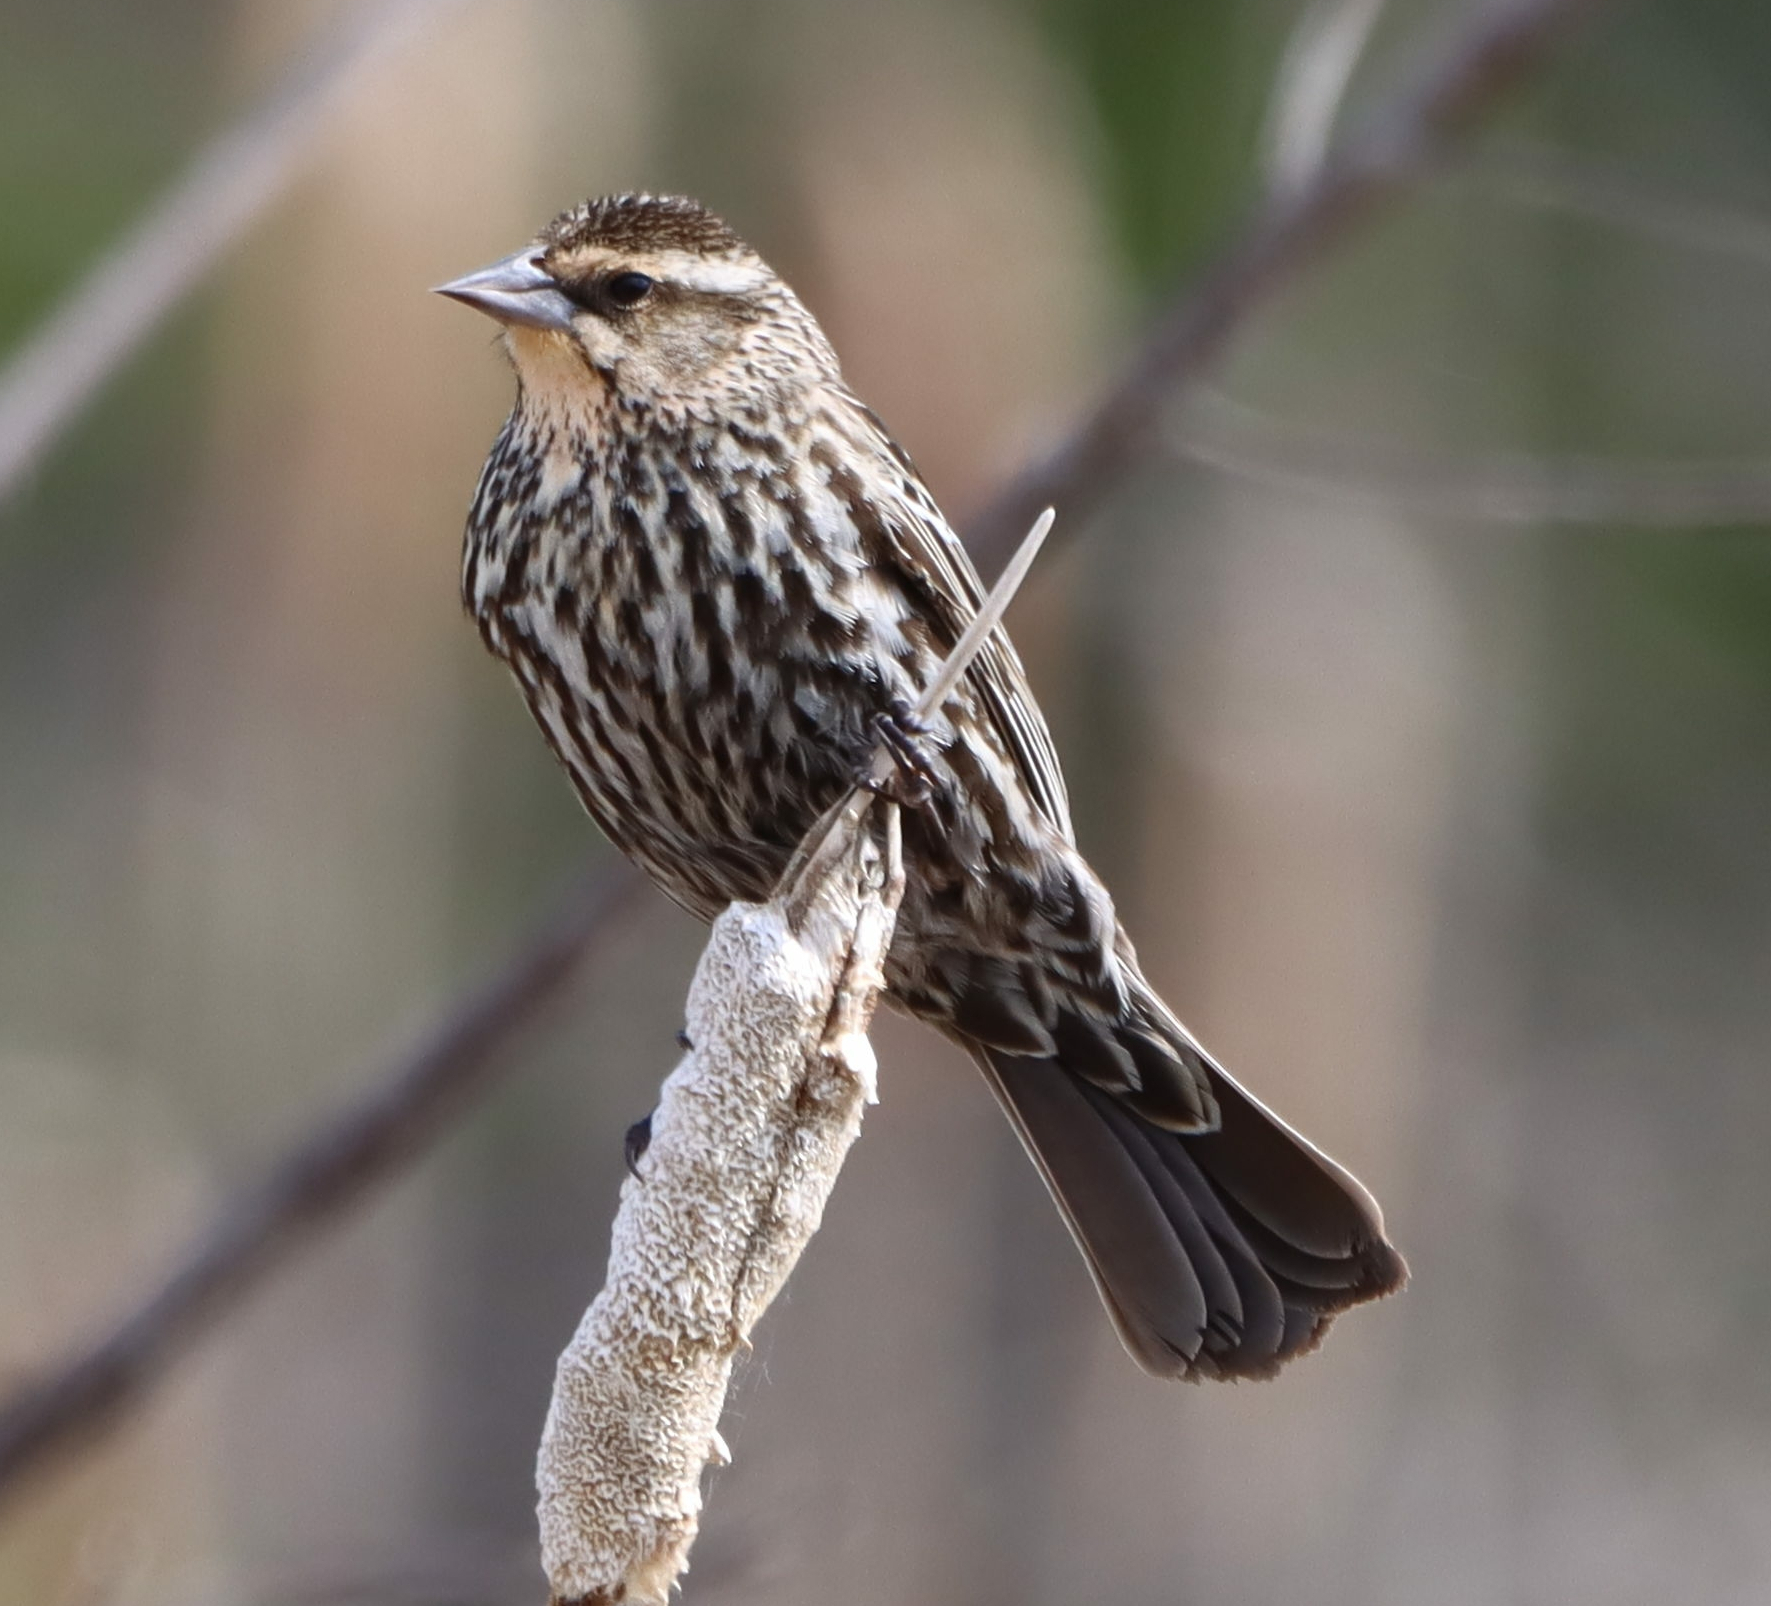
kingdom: Animalia
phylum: Chordata
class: Aves
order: Passeriformes
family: Icteridae
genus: Agelaius
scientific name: Agelaius phoeniceus
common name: Red-winged blackbird
